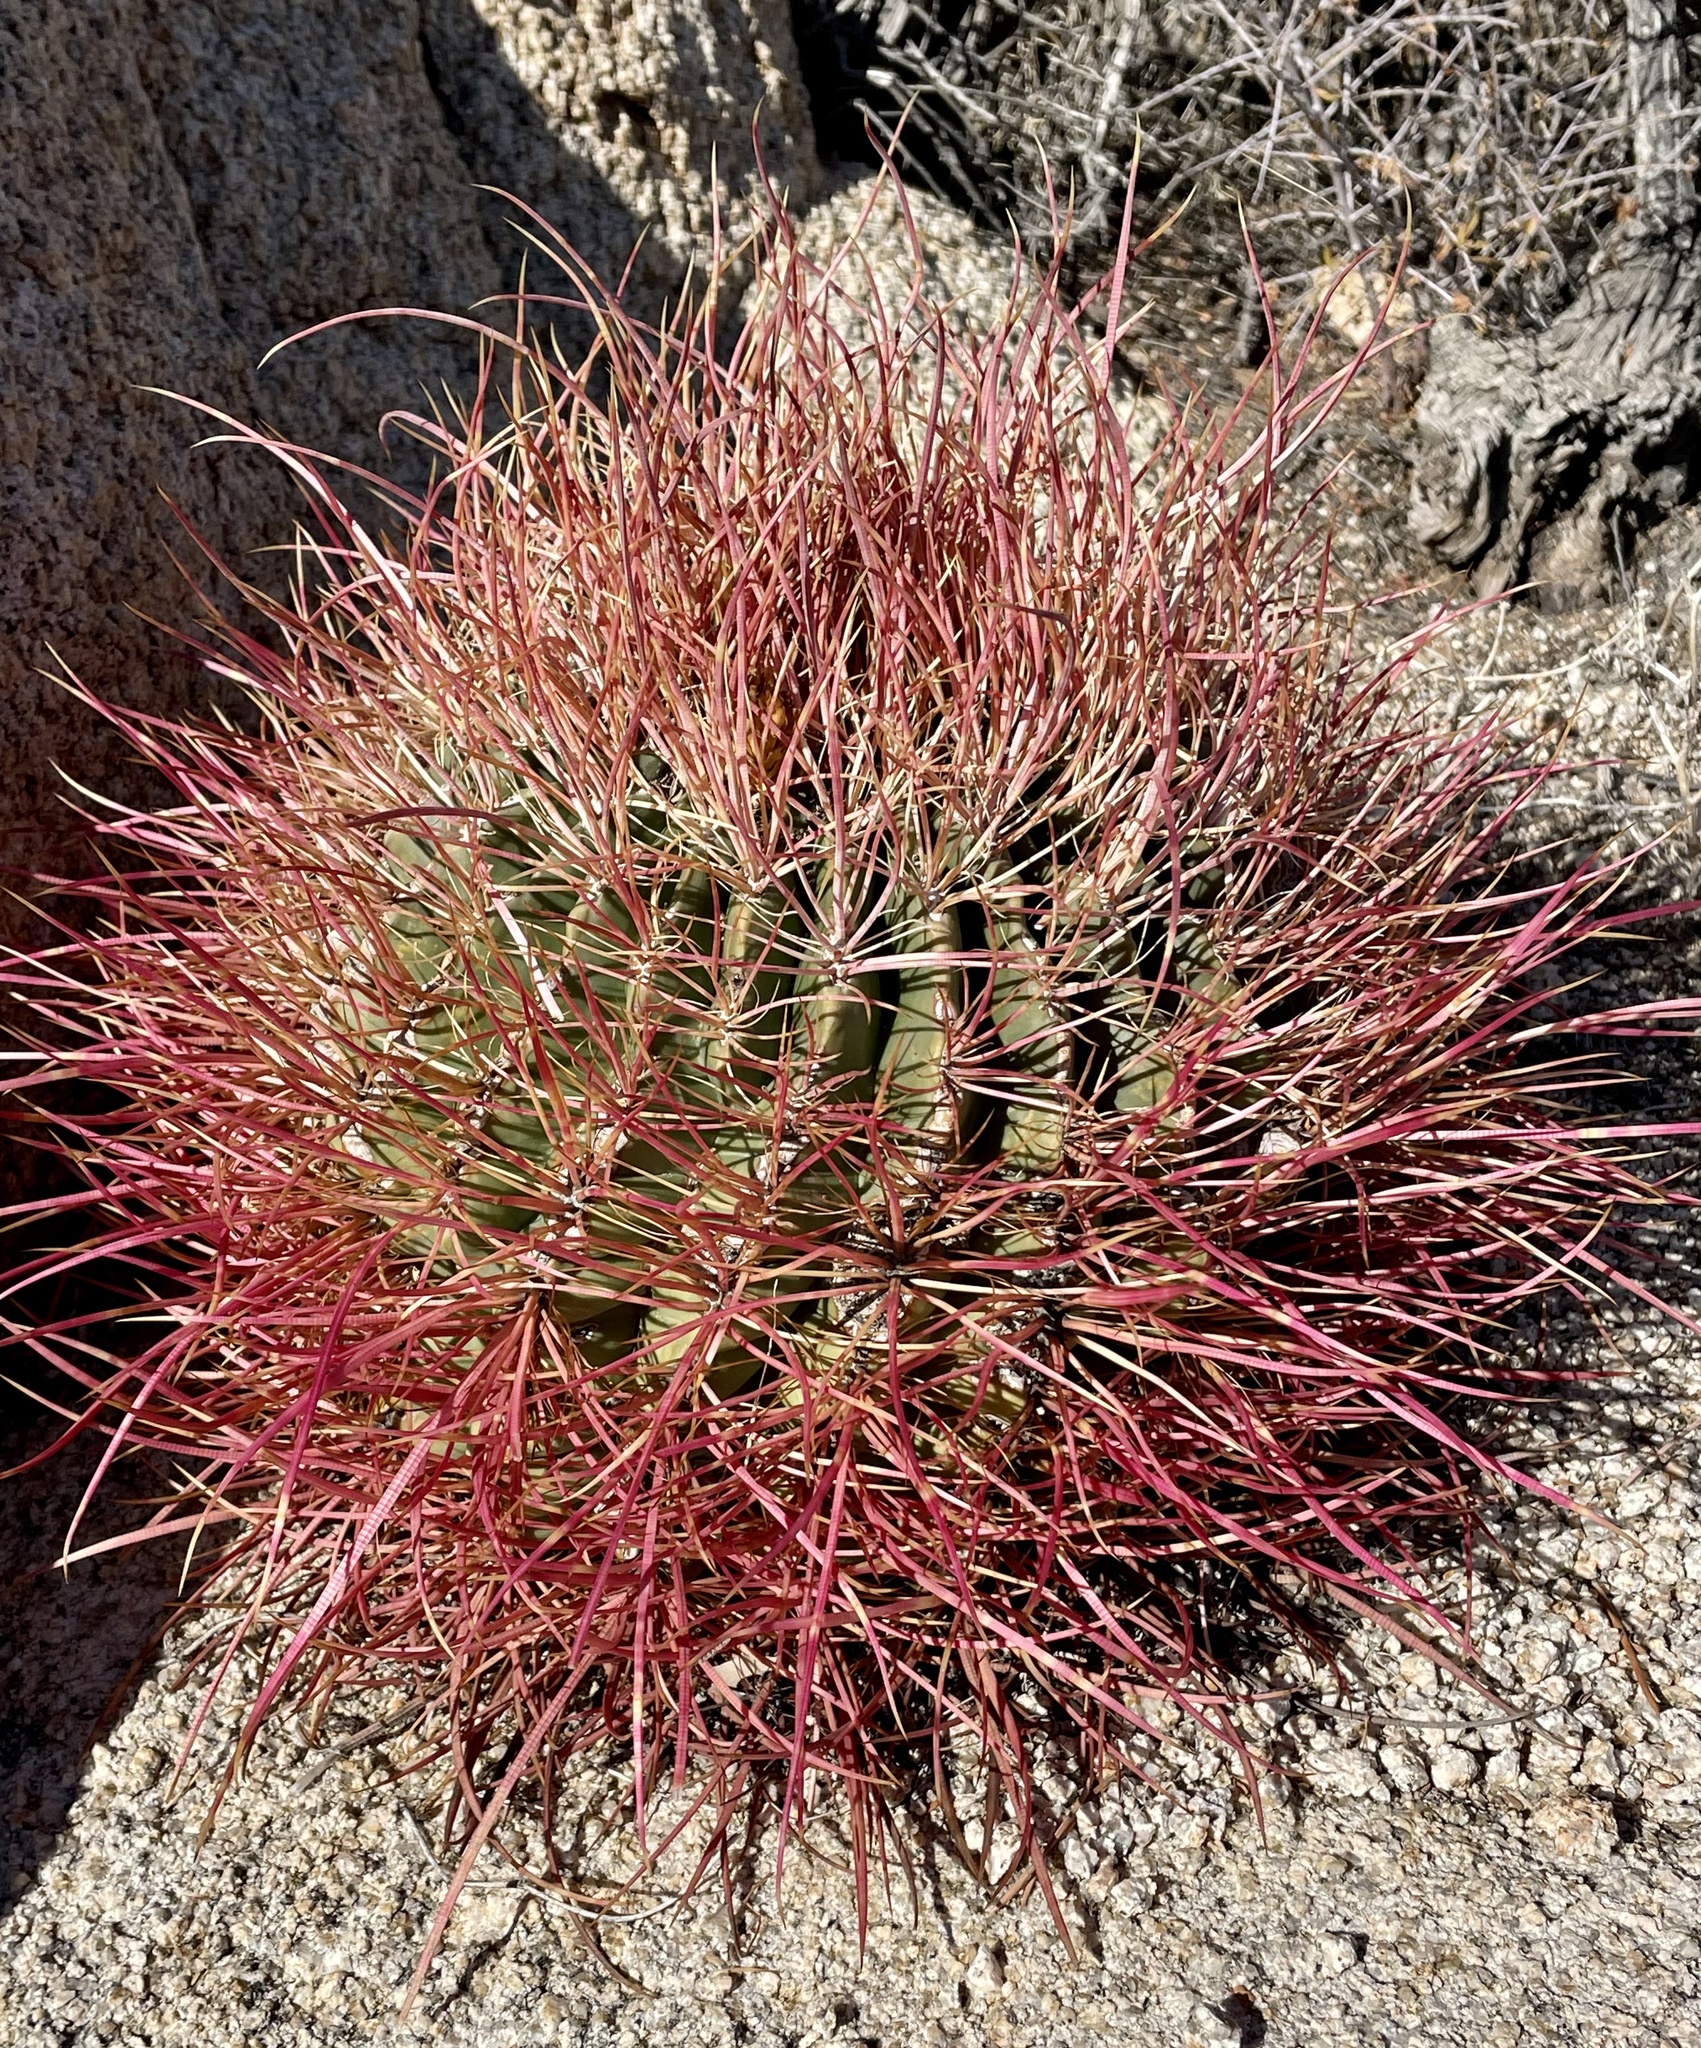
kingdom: Plantae
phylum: Tracheophyta
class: Magnoliopsida
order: Caryophyllales
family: Cactaceae
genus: Ferocactus
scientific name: Ferocactus cylindraceus
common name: California barrel cactus
